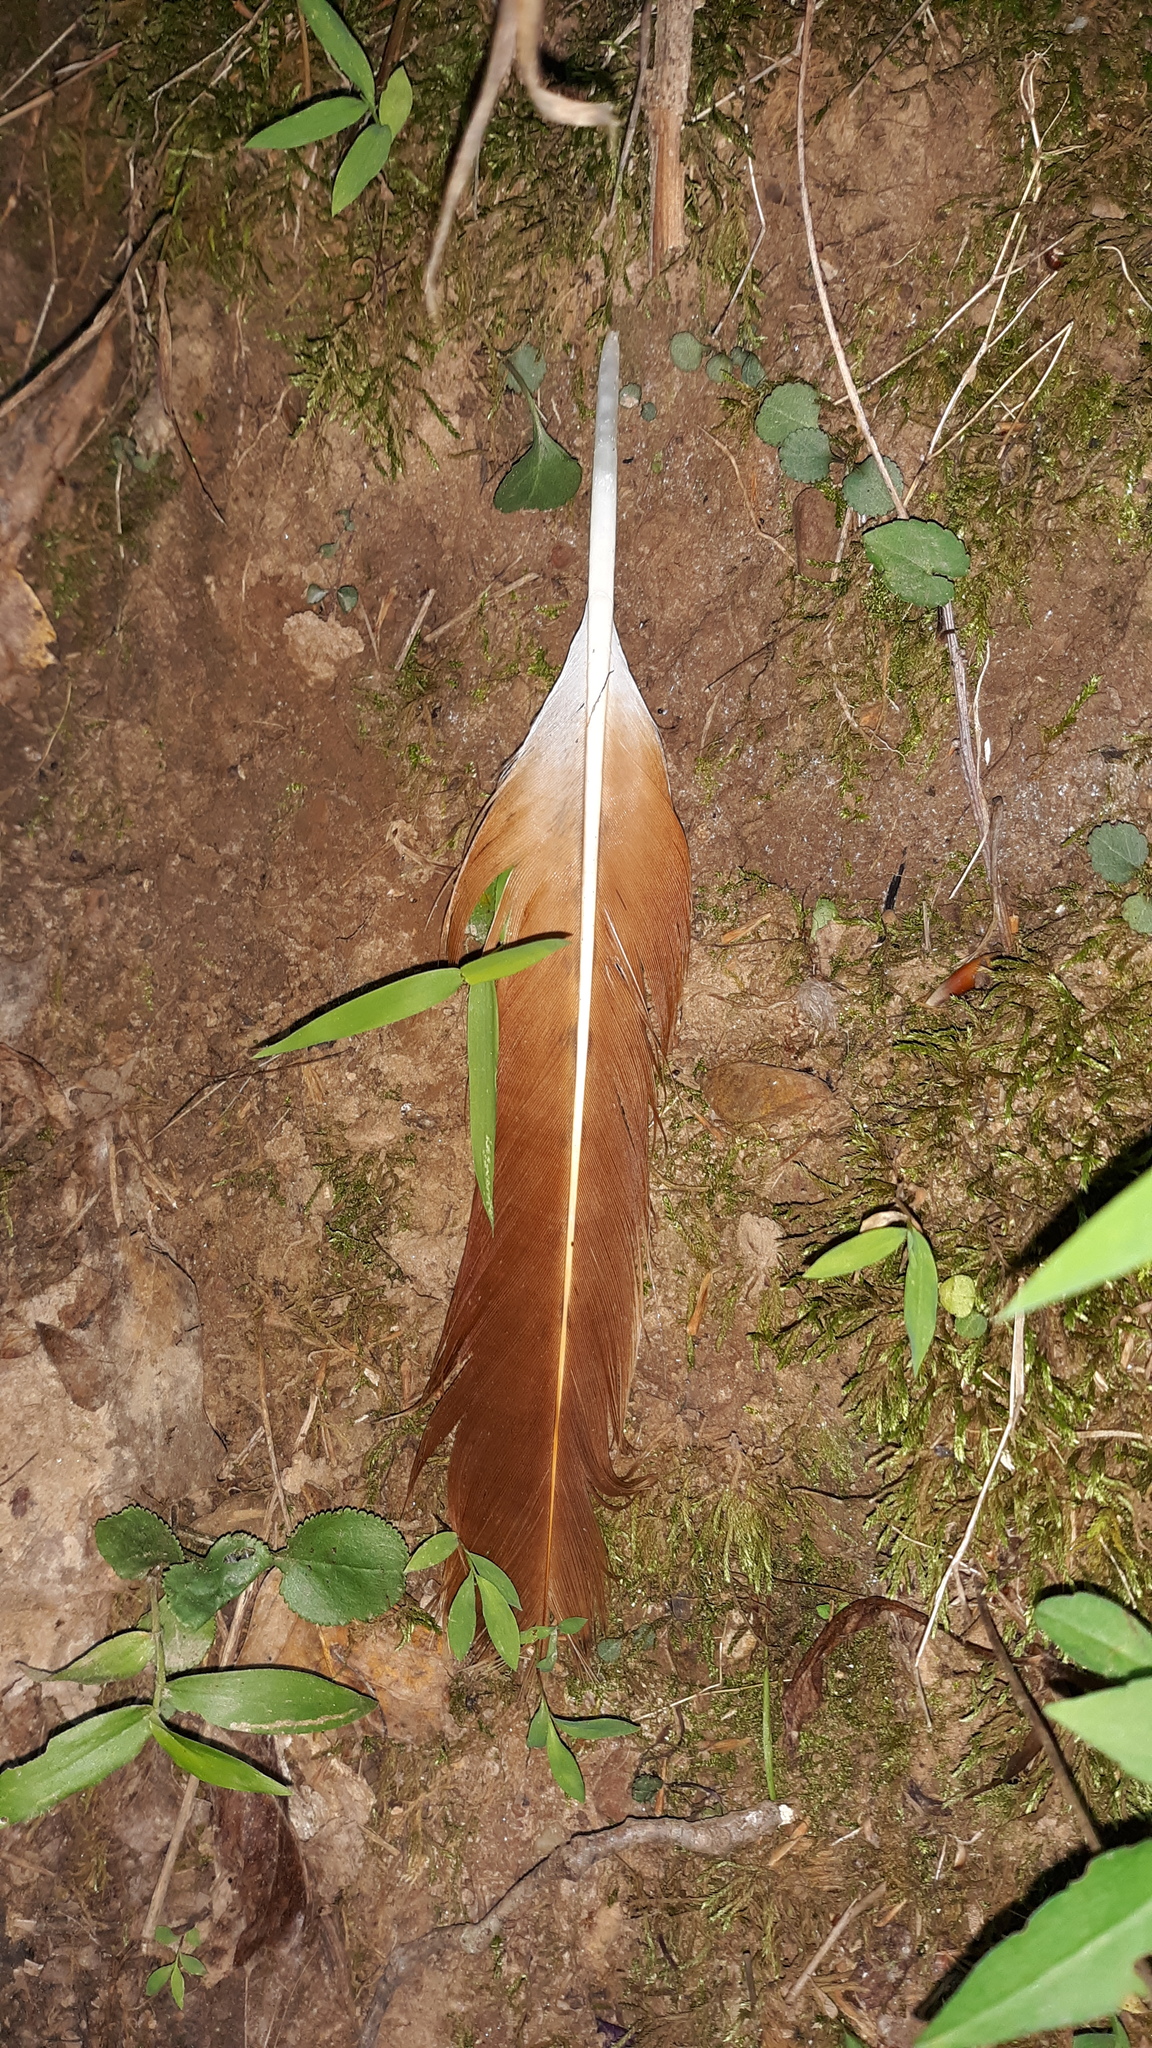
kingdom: Animalia
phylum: Chordata
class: Aves
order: Accipitriformes
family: Accipitridae
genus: Buteo
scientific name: Buteo jamaicensis
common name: Red-tailed hawk
